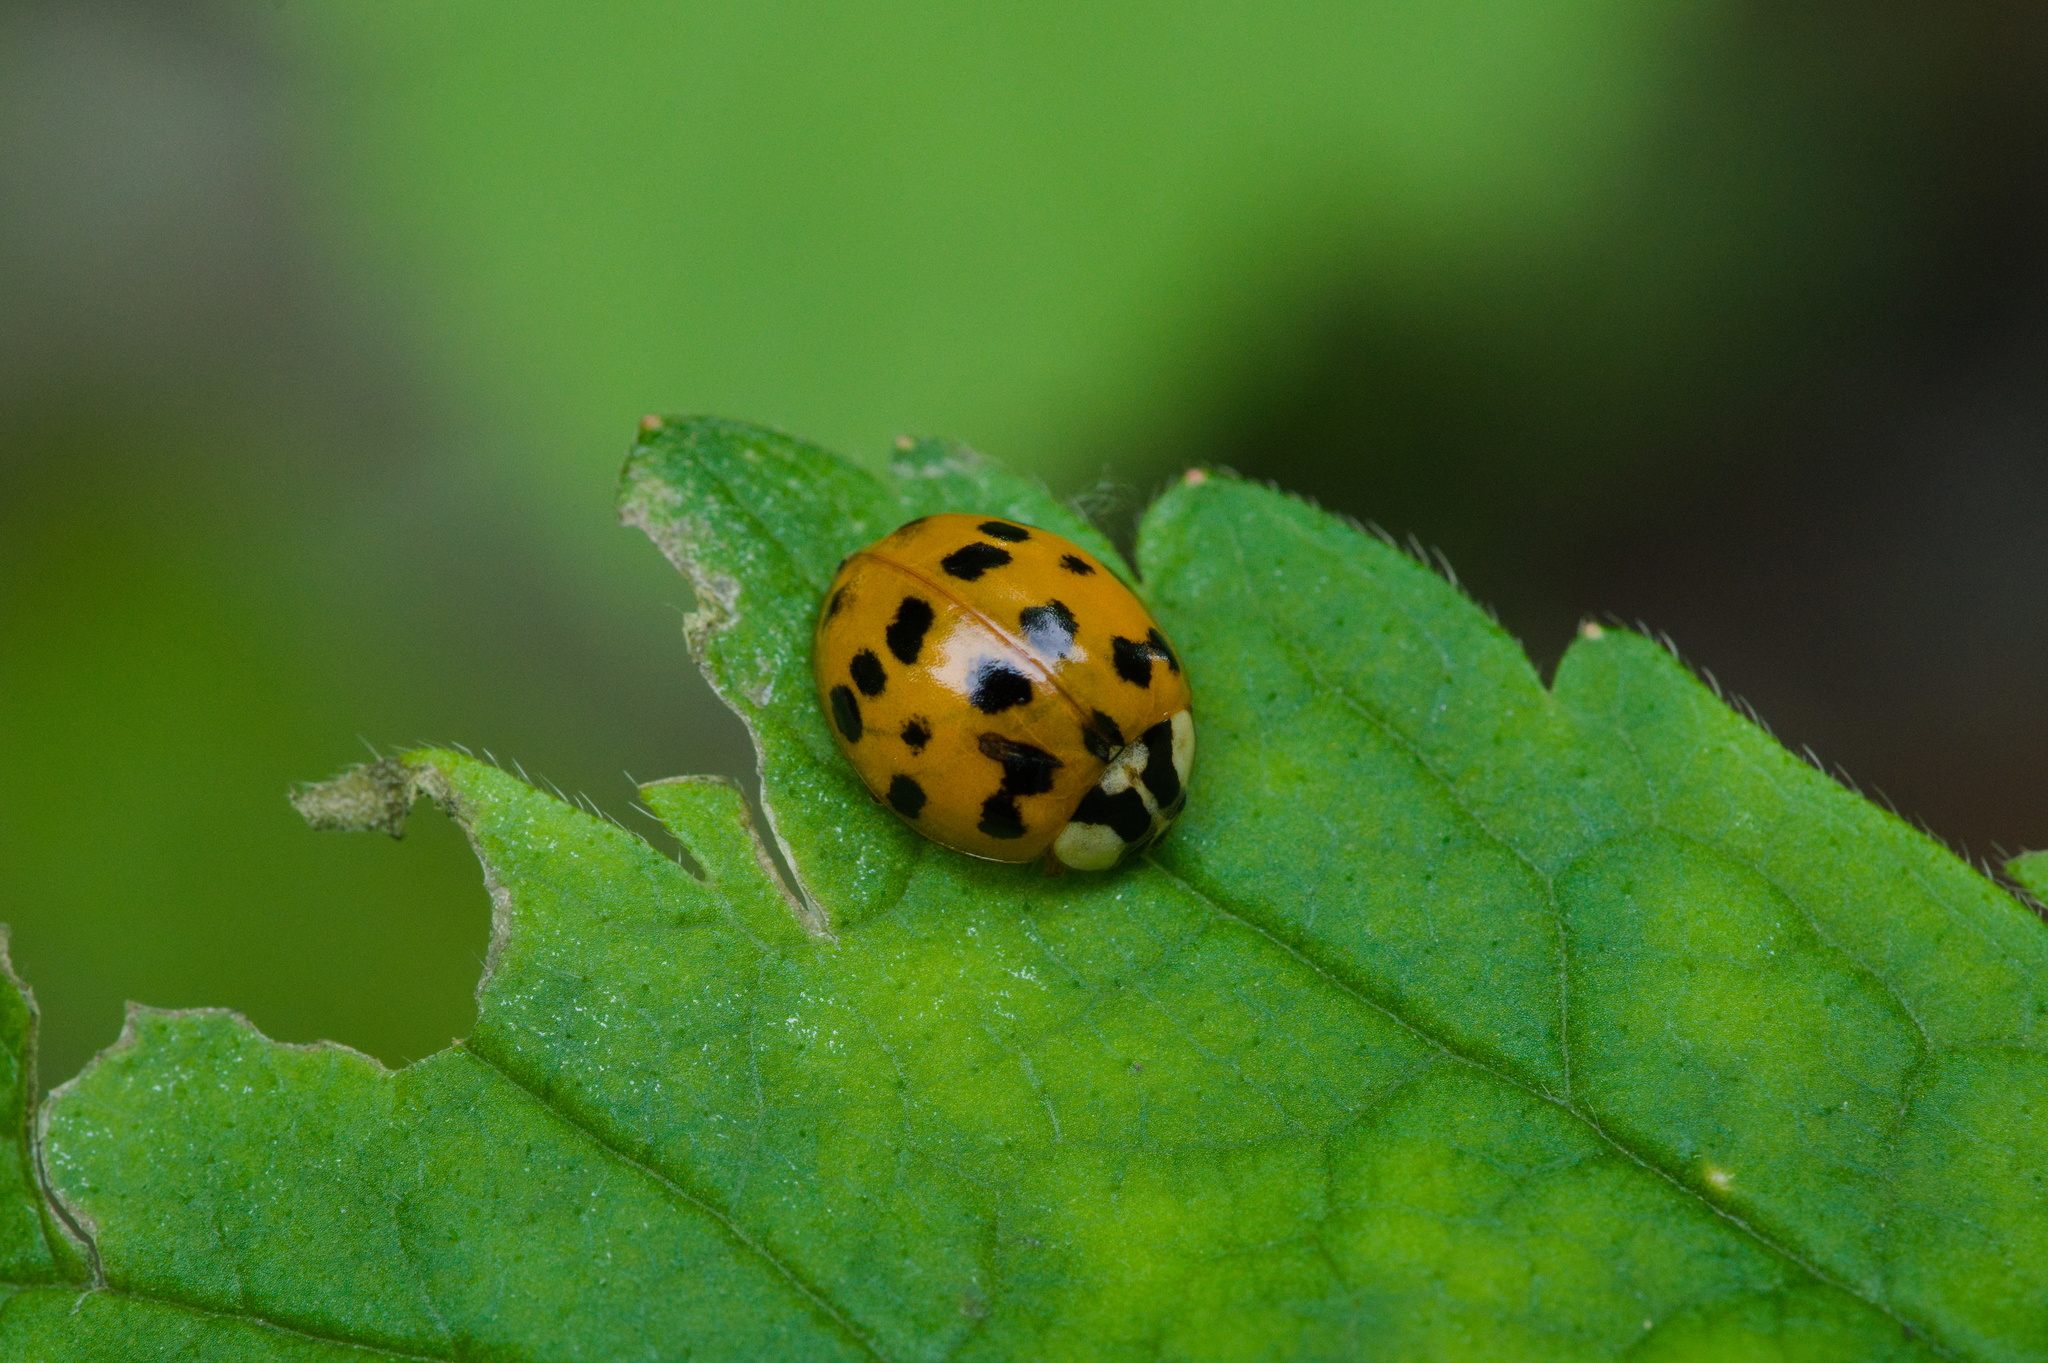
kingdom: Animalia
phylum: Arthropoda
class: Insecta
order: Coleoptera
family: Coccinellidae
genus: Harmonia
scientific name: Harmonia axyridis
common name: Harlequin ladybird
